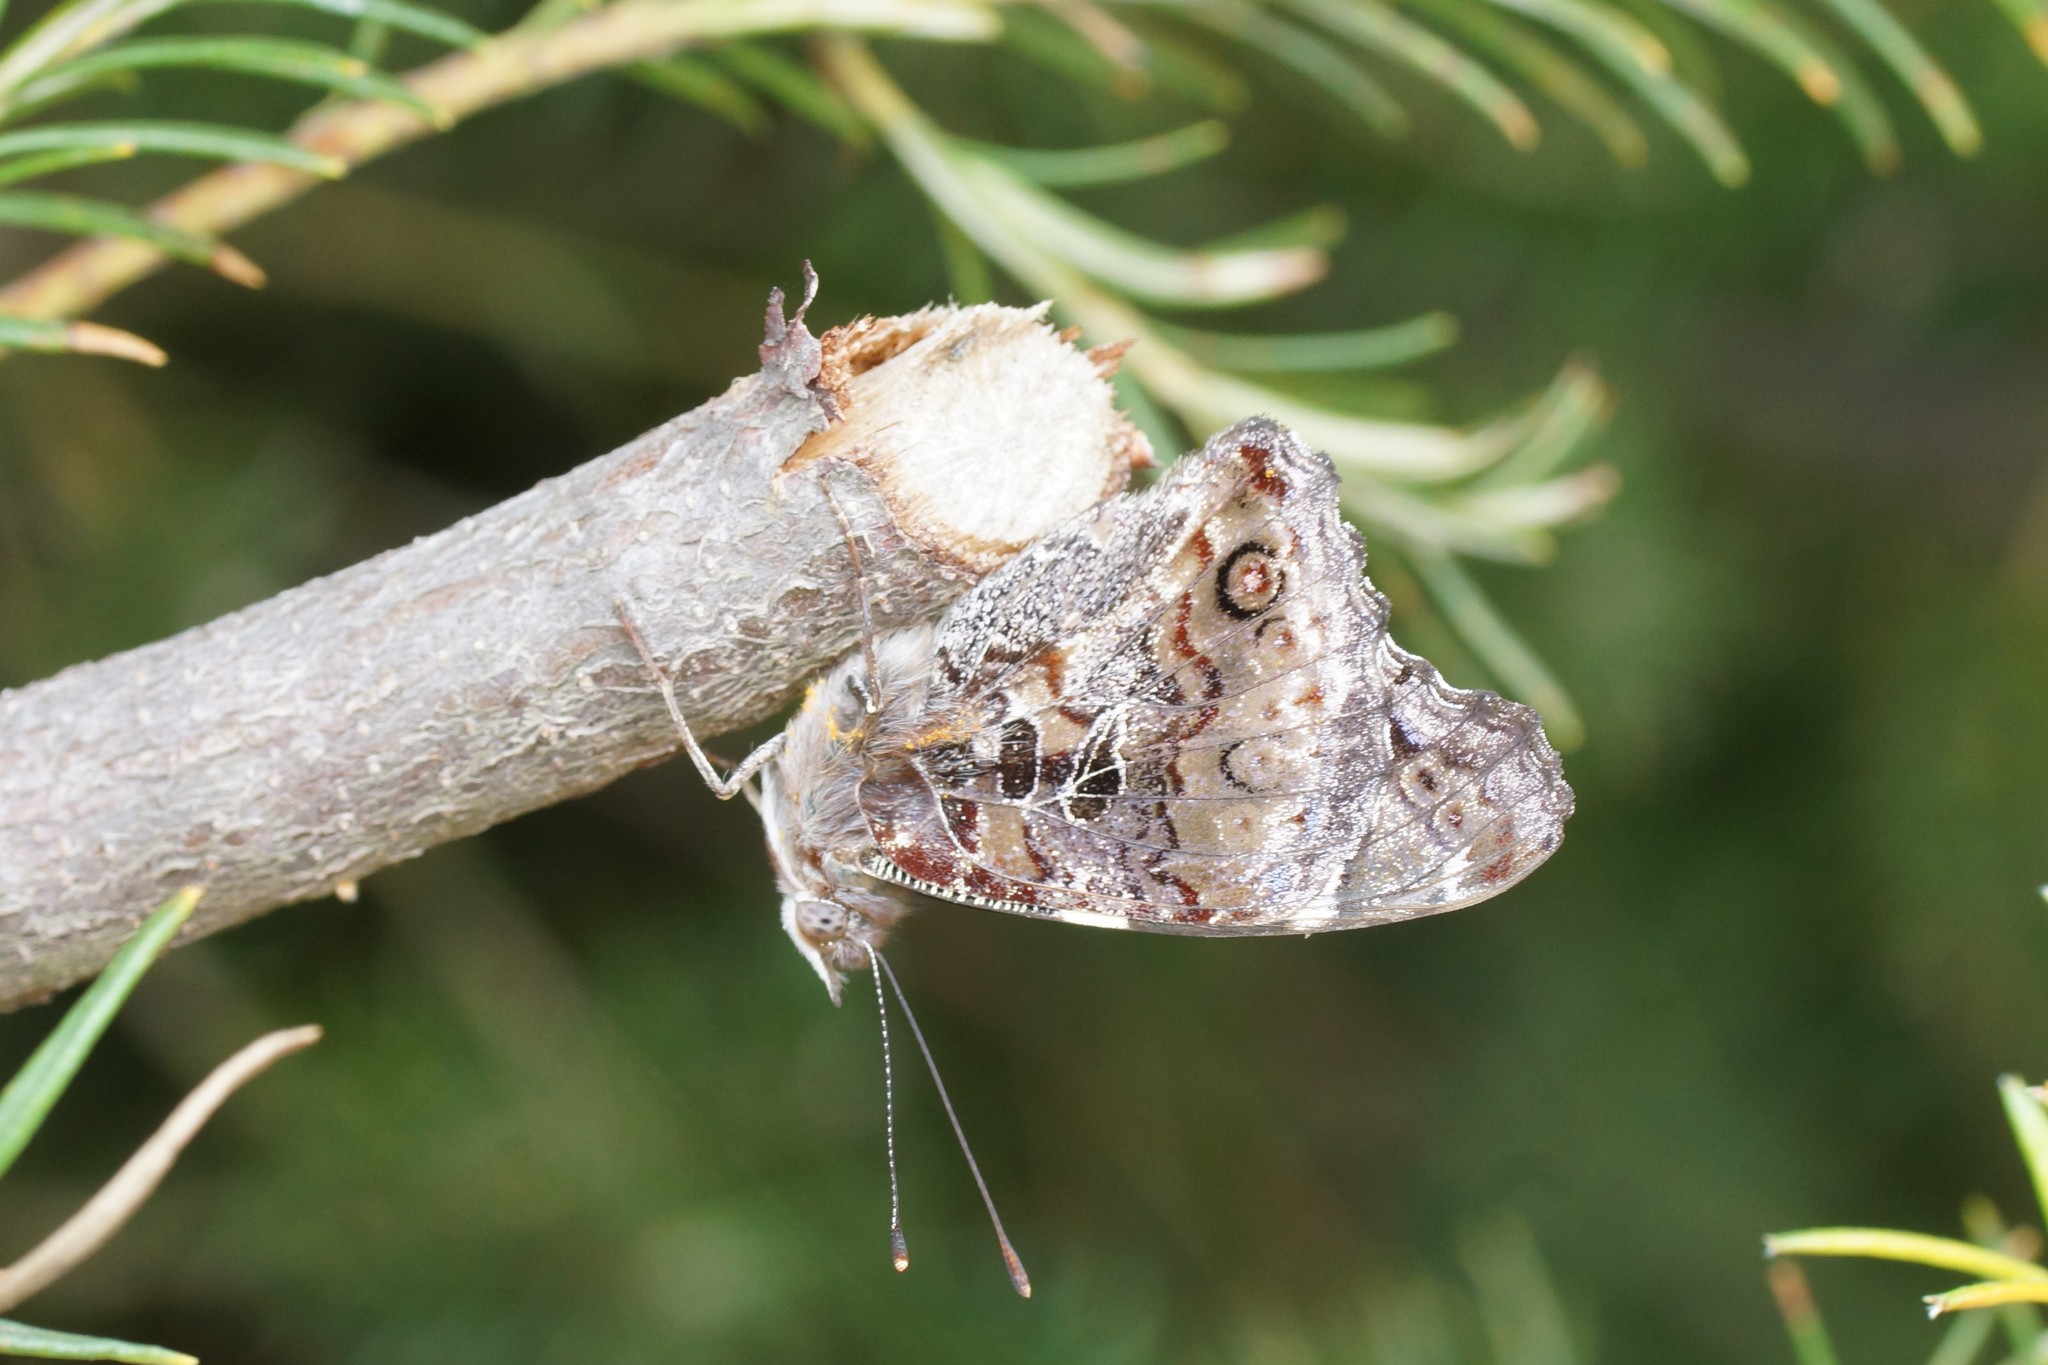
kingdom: Animalia
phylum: Arthropoda
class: Insecta
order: Lepidoptera
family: Nymphalidae
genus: Vanessa
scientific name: Vanessa itea
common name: Yellow admiral
